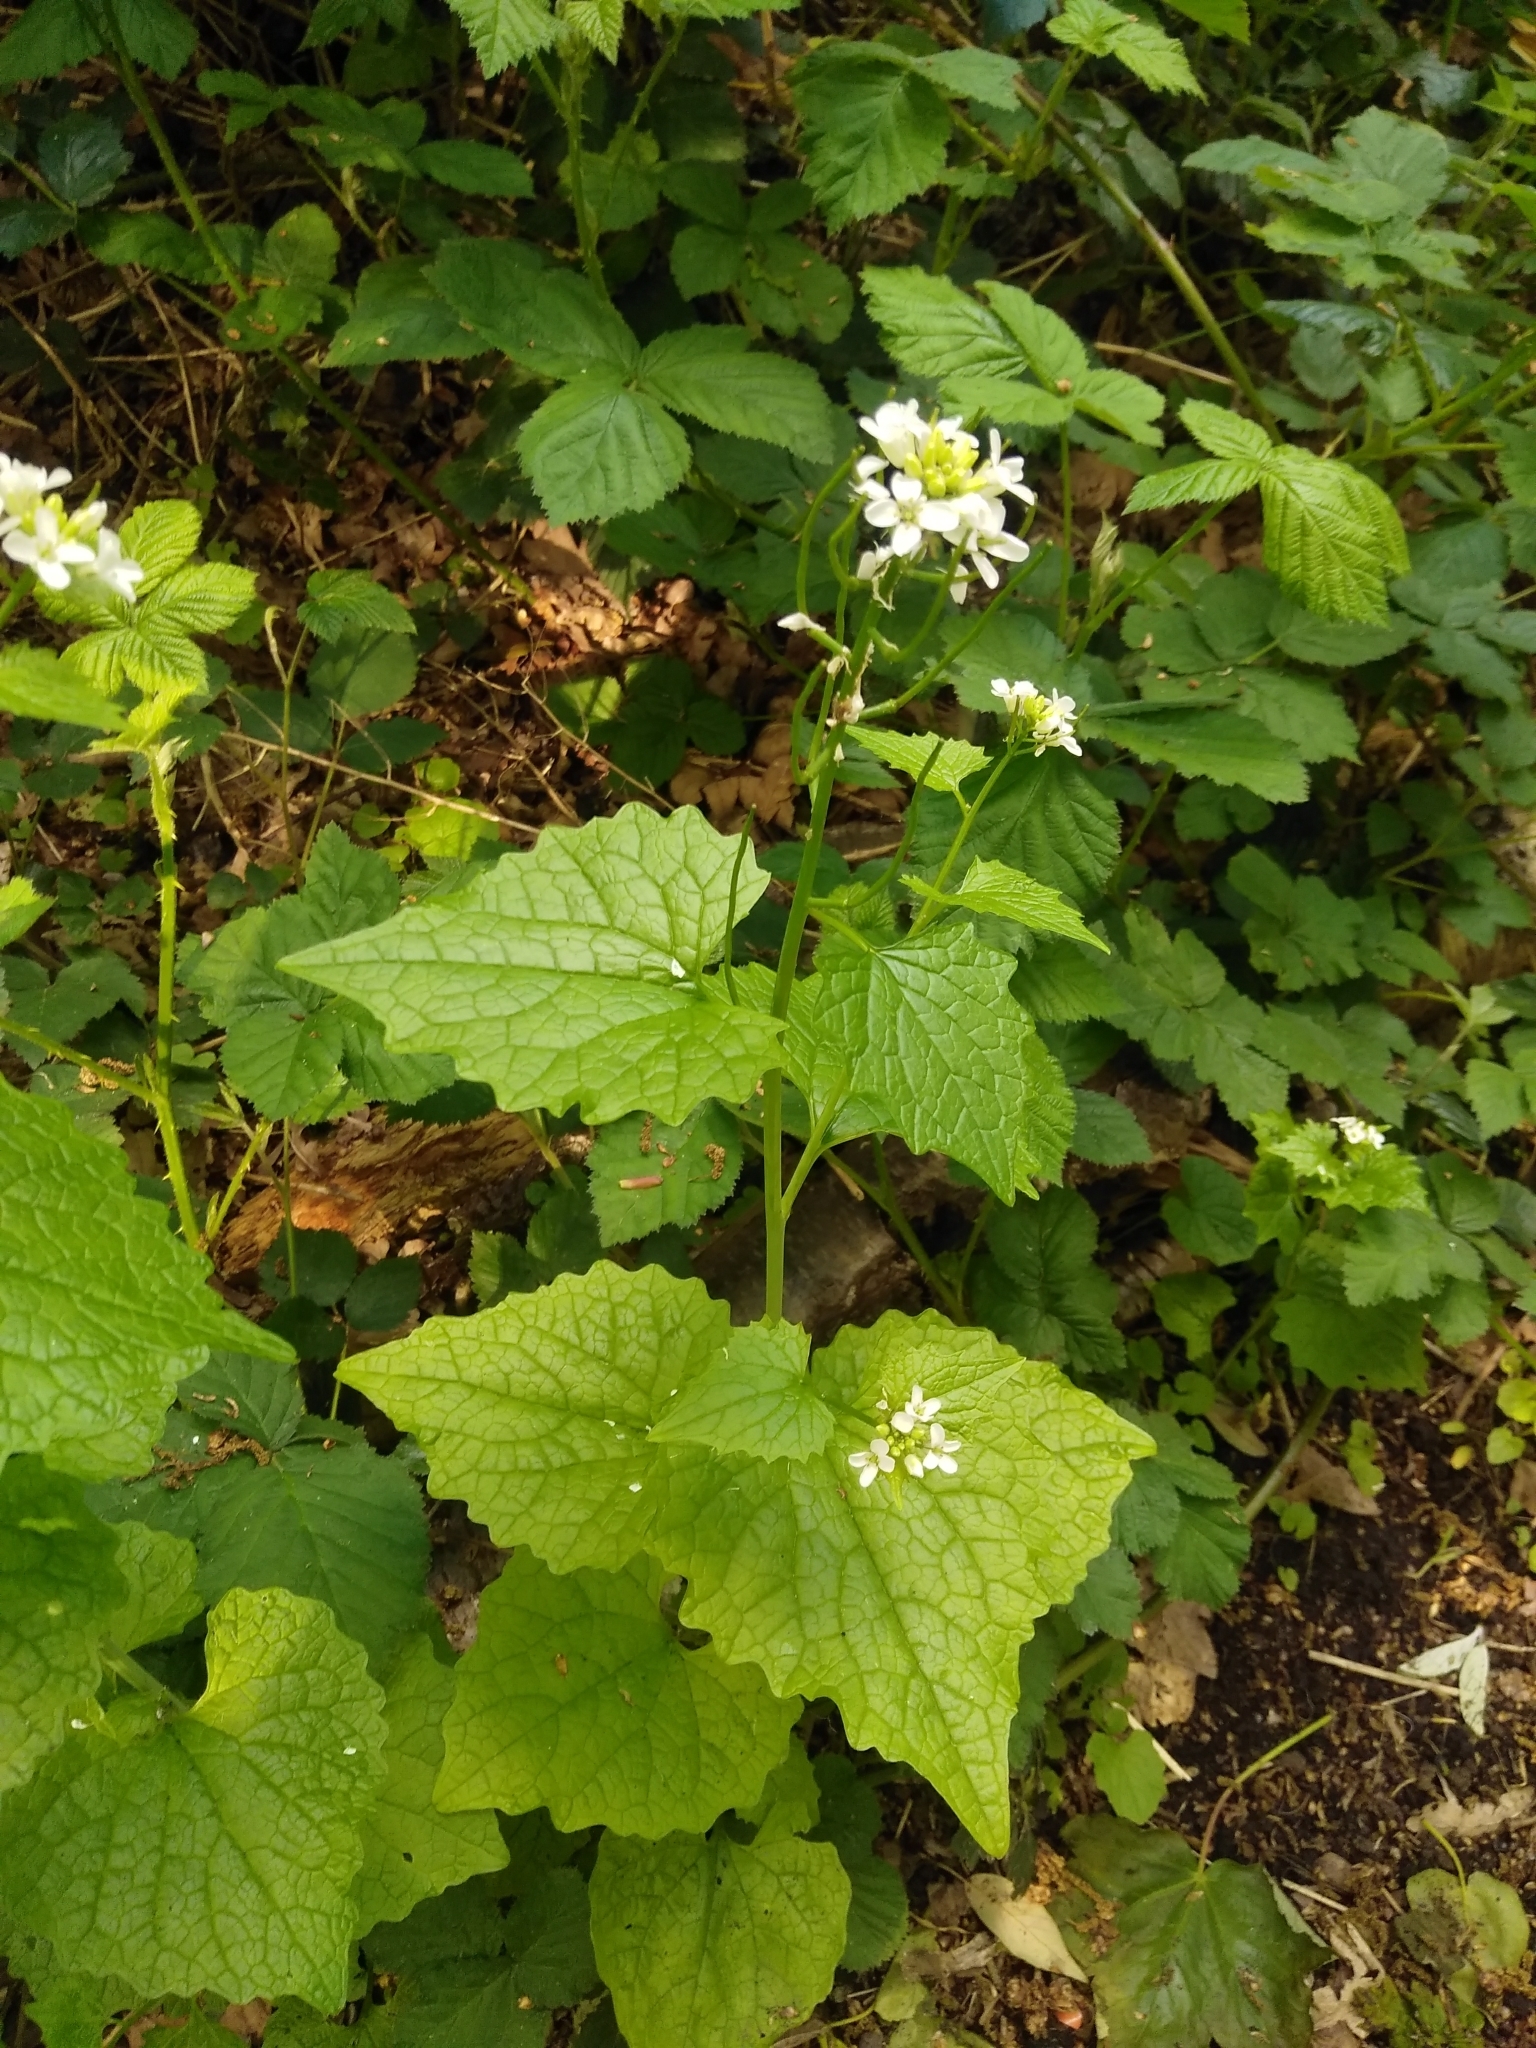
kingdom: Plantae
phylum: Tracheophyta
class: Magnoliopsida
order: Brassicales
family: Brassicaceae
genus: Alliaria
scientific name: Alliaria petiolata
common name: Garlic mustard
